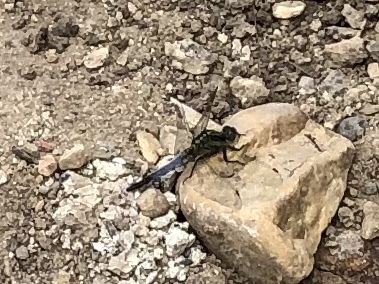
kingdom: Animalia
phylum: Arthropoda
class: Insecta
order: Odonata
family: Libellulidae
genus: Orthetrum
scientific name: Orthetrum cancellatum
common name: Black-tailed skimmer
